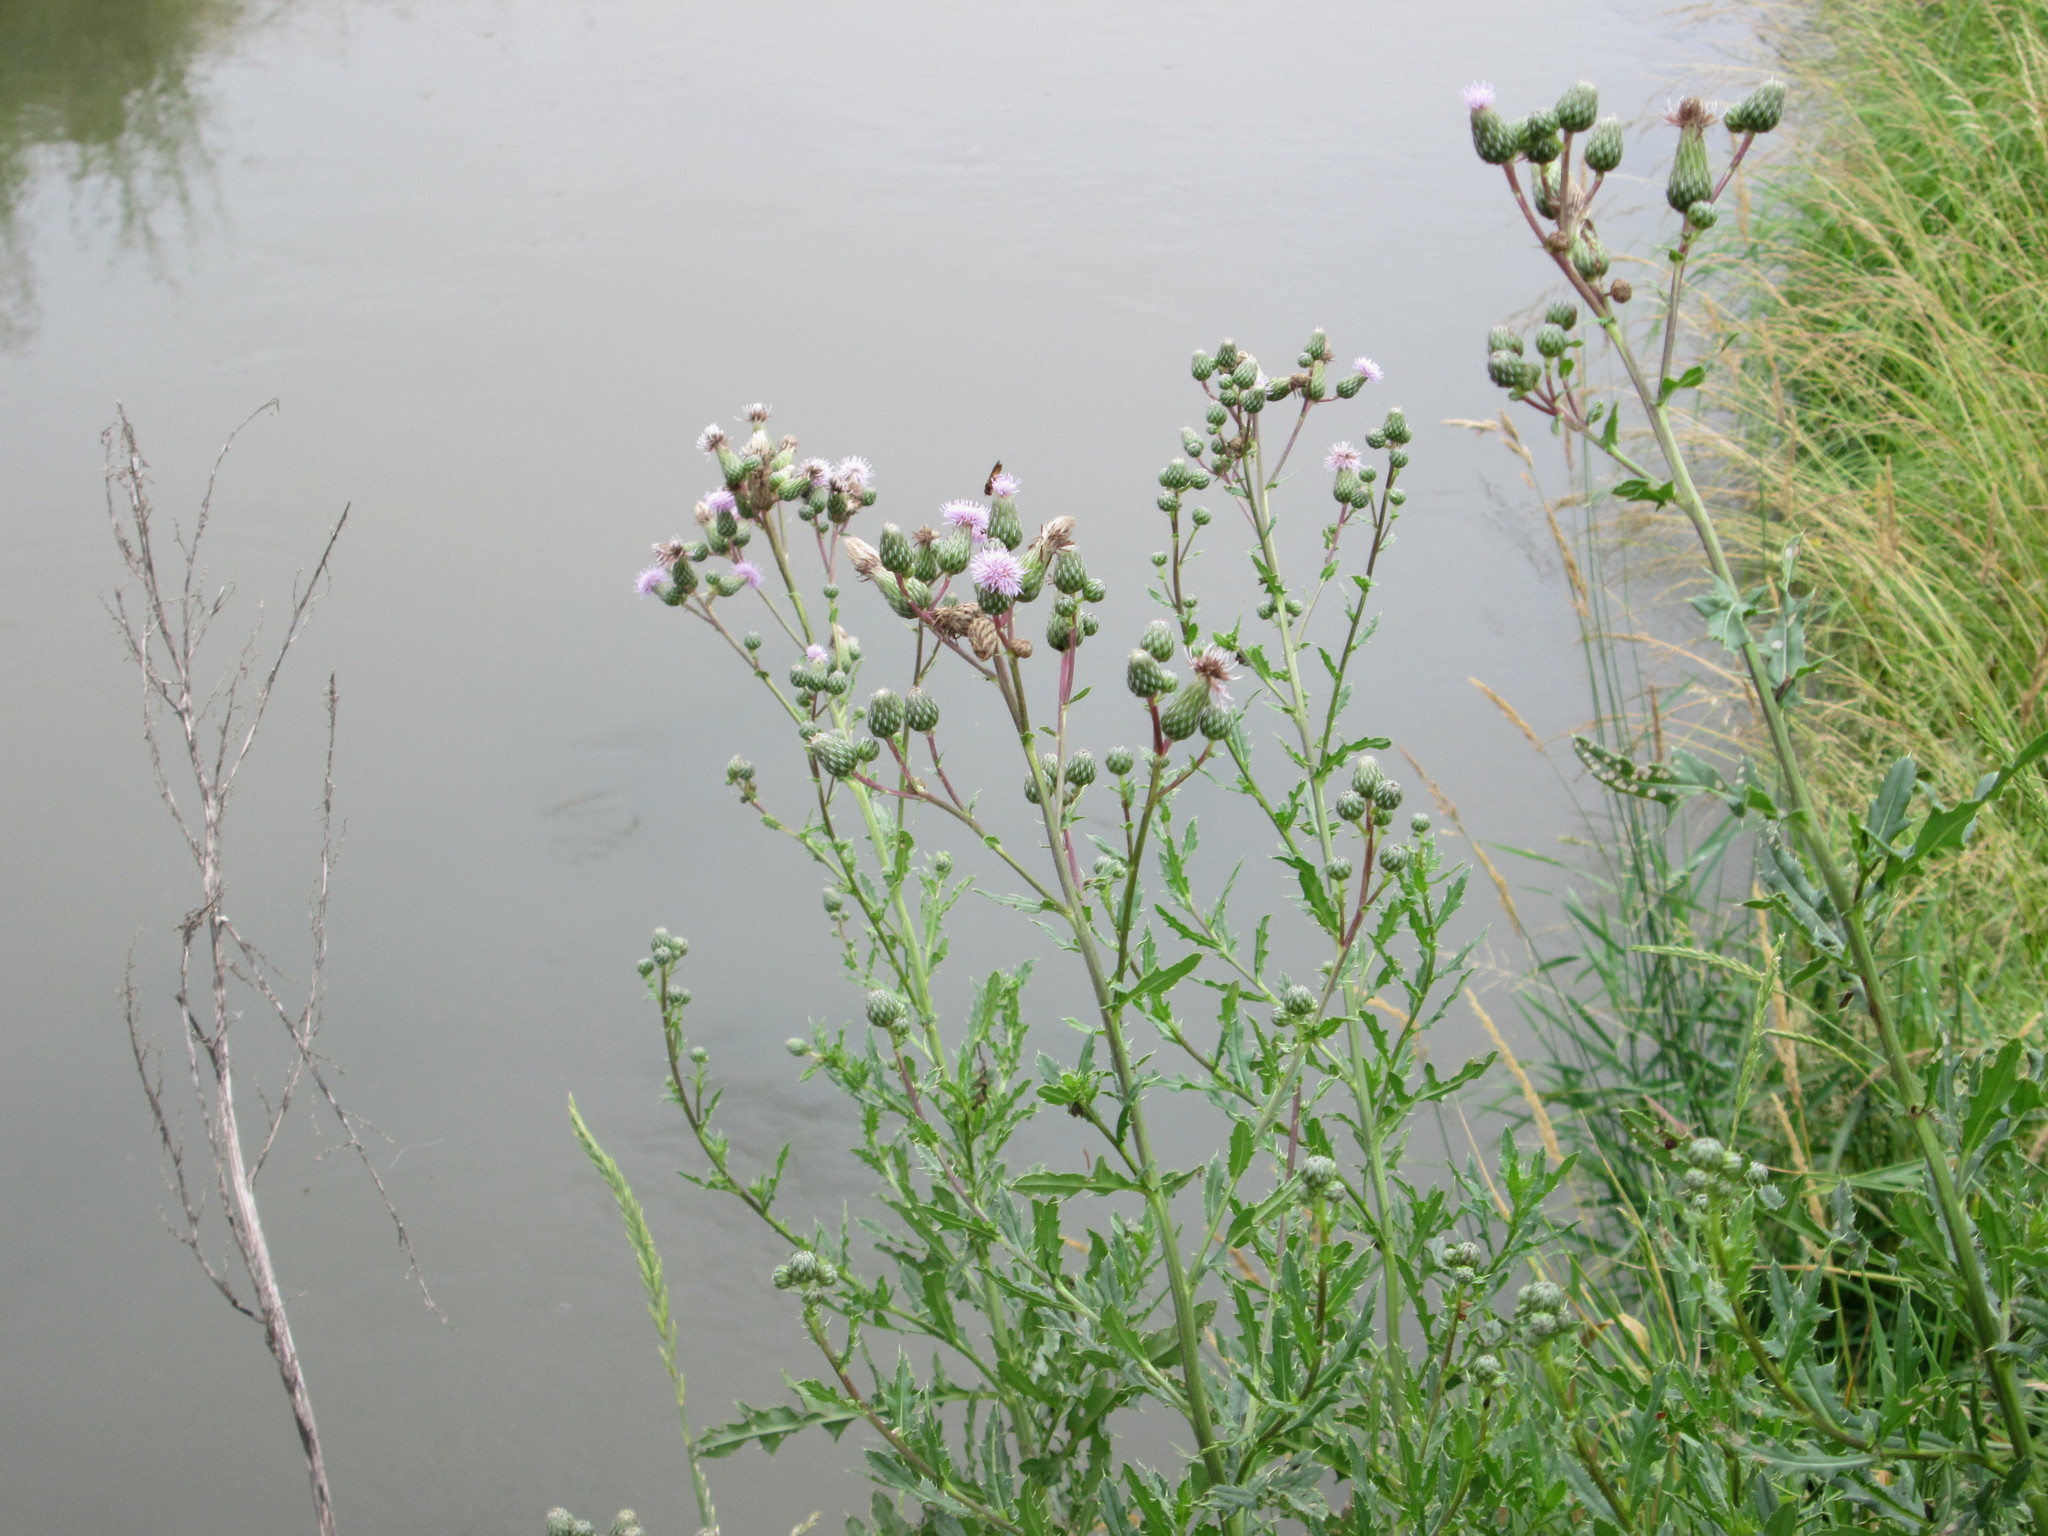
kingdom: Plantae
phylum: Tracheophyta
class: Magnoliopsida
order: Asterales
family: Asteraceae
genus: Cirsium
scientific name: Cirsium arvense
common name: Creeping thistle
